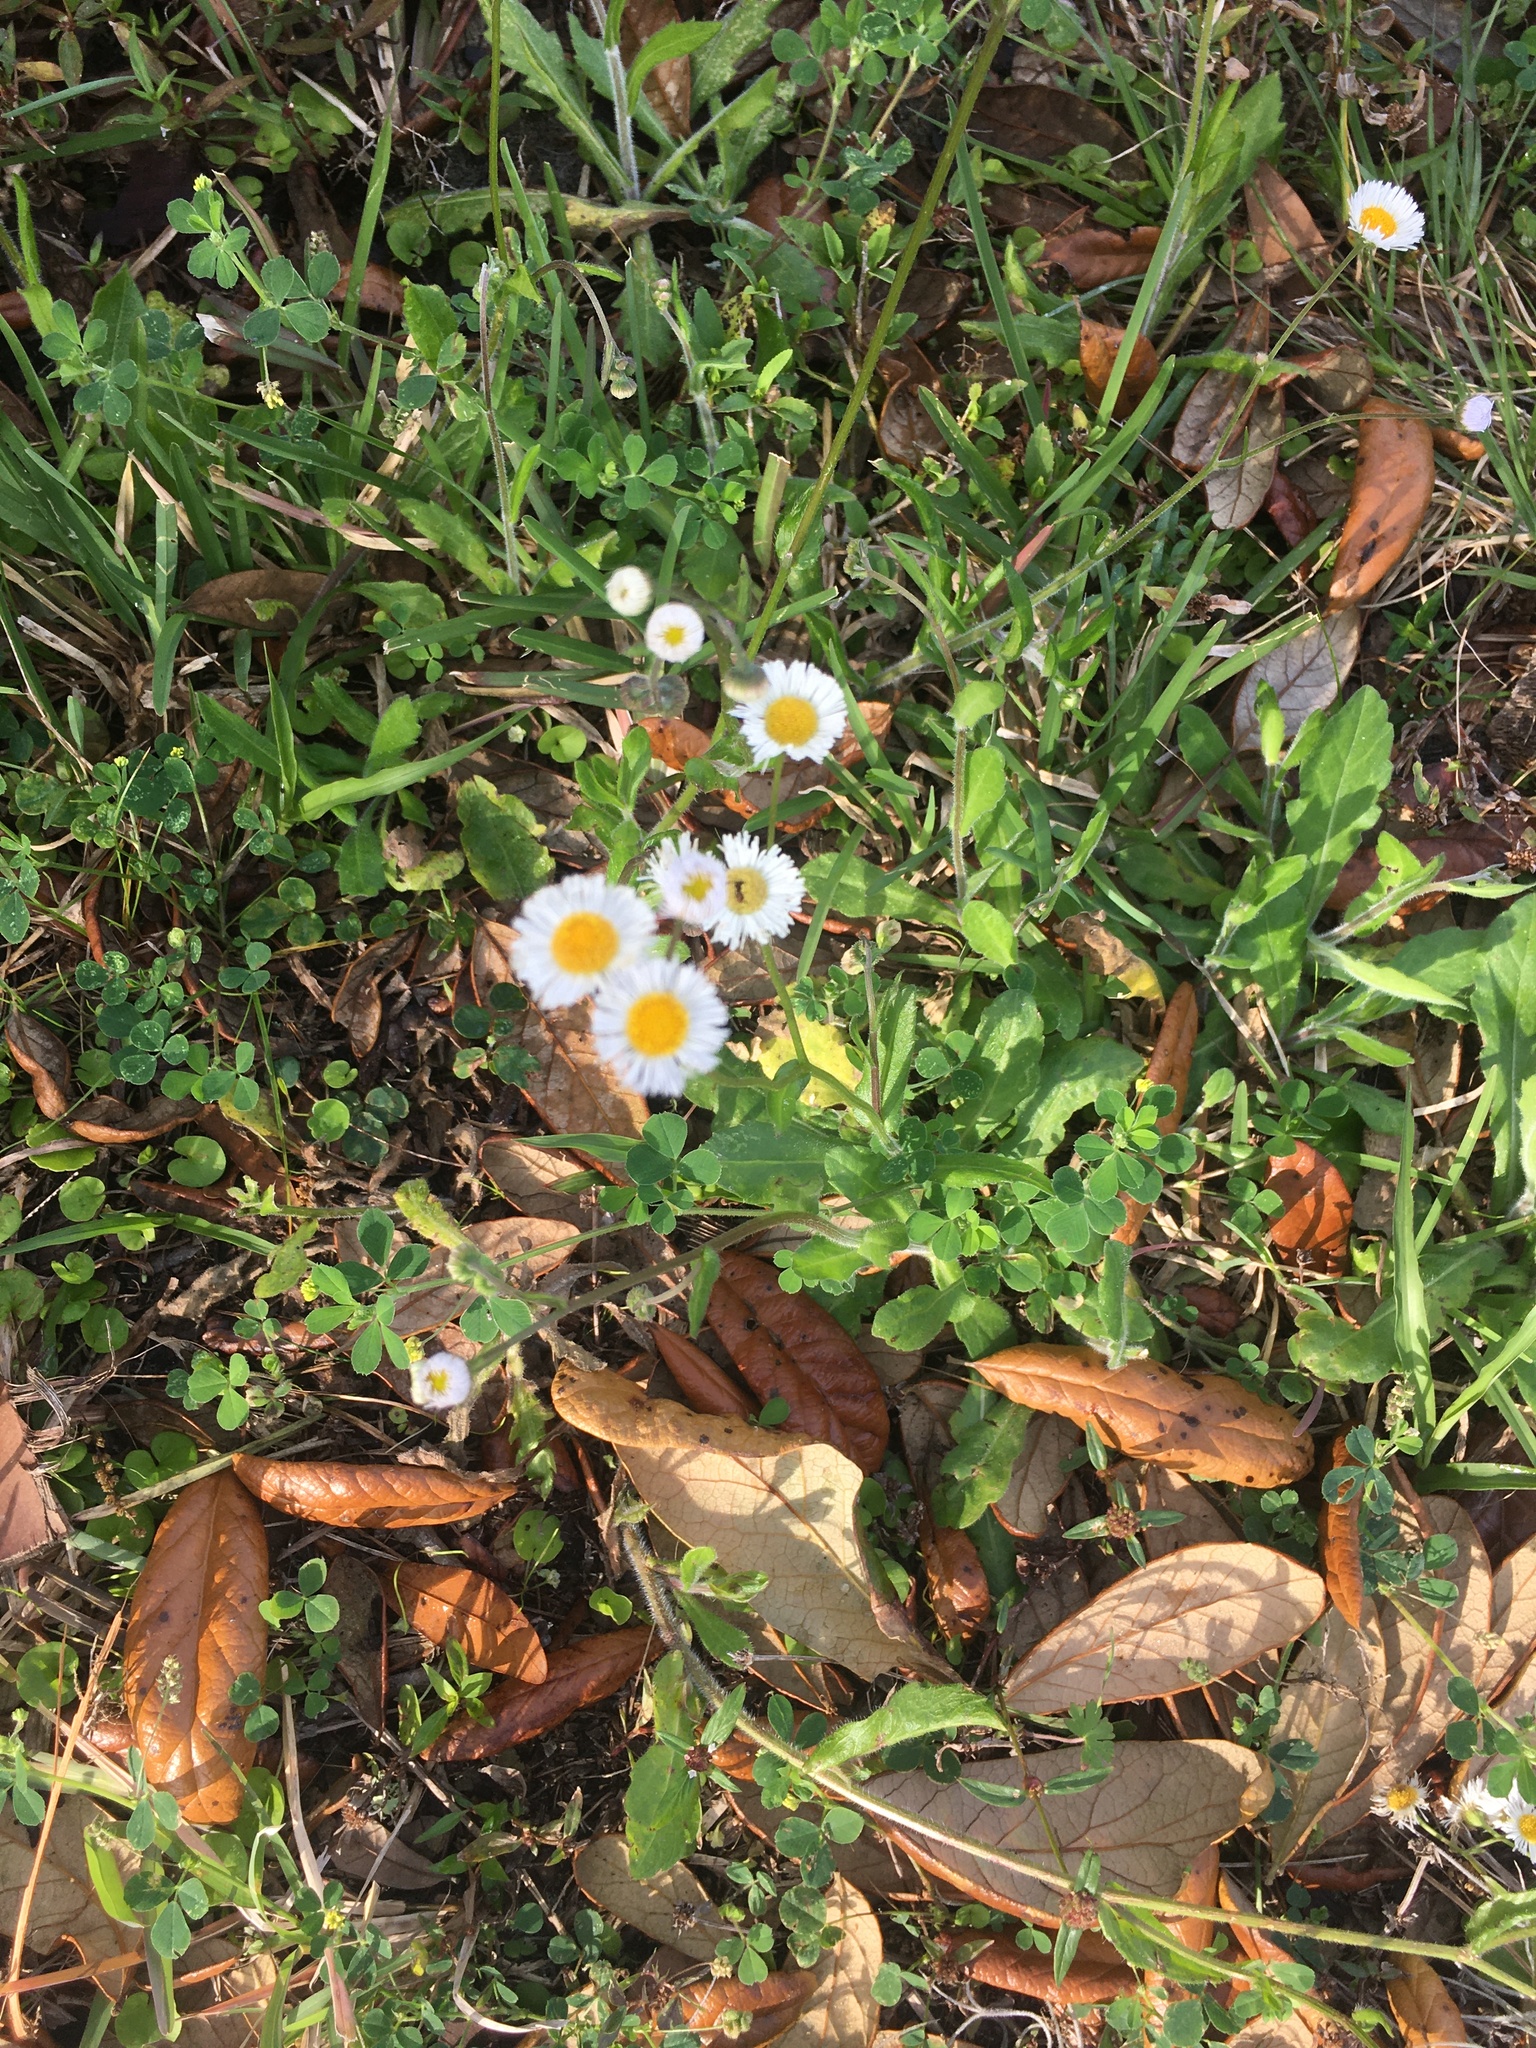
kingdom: Plantae
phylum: Tracheophyta
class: Magnoliopsida
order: Asterales
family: Asteraceae
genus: Erigeron
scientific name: Erigeron quercifolius
